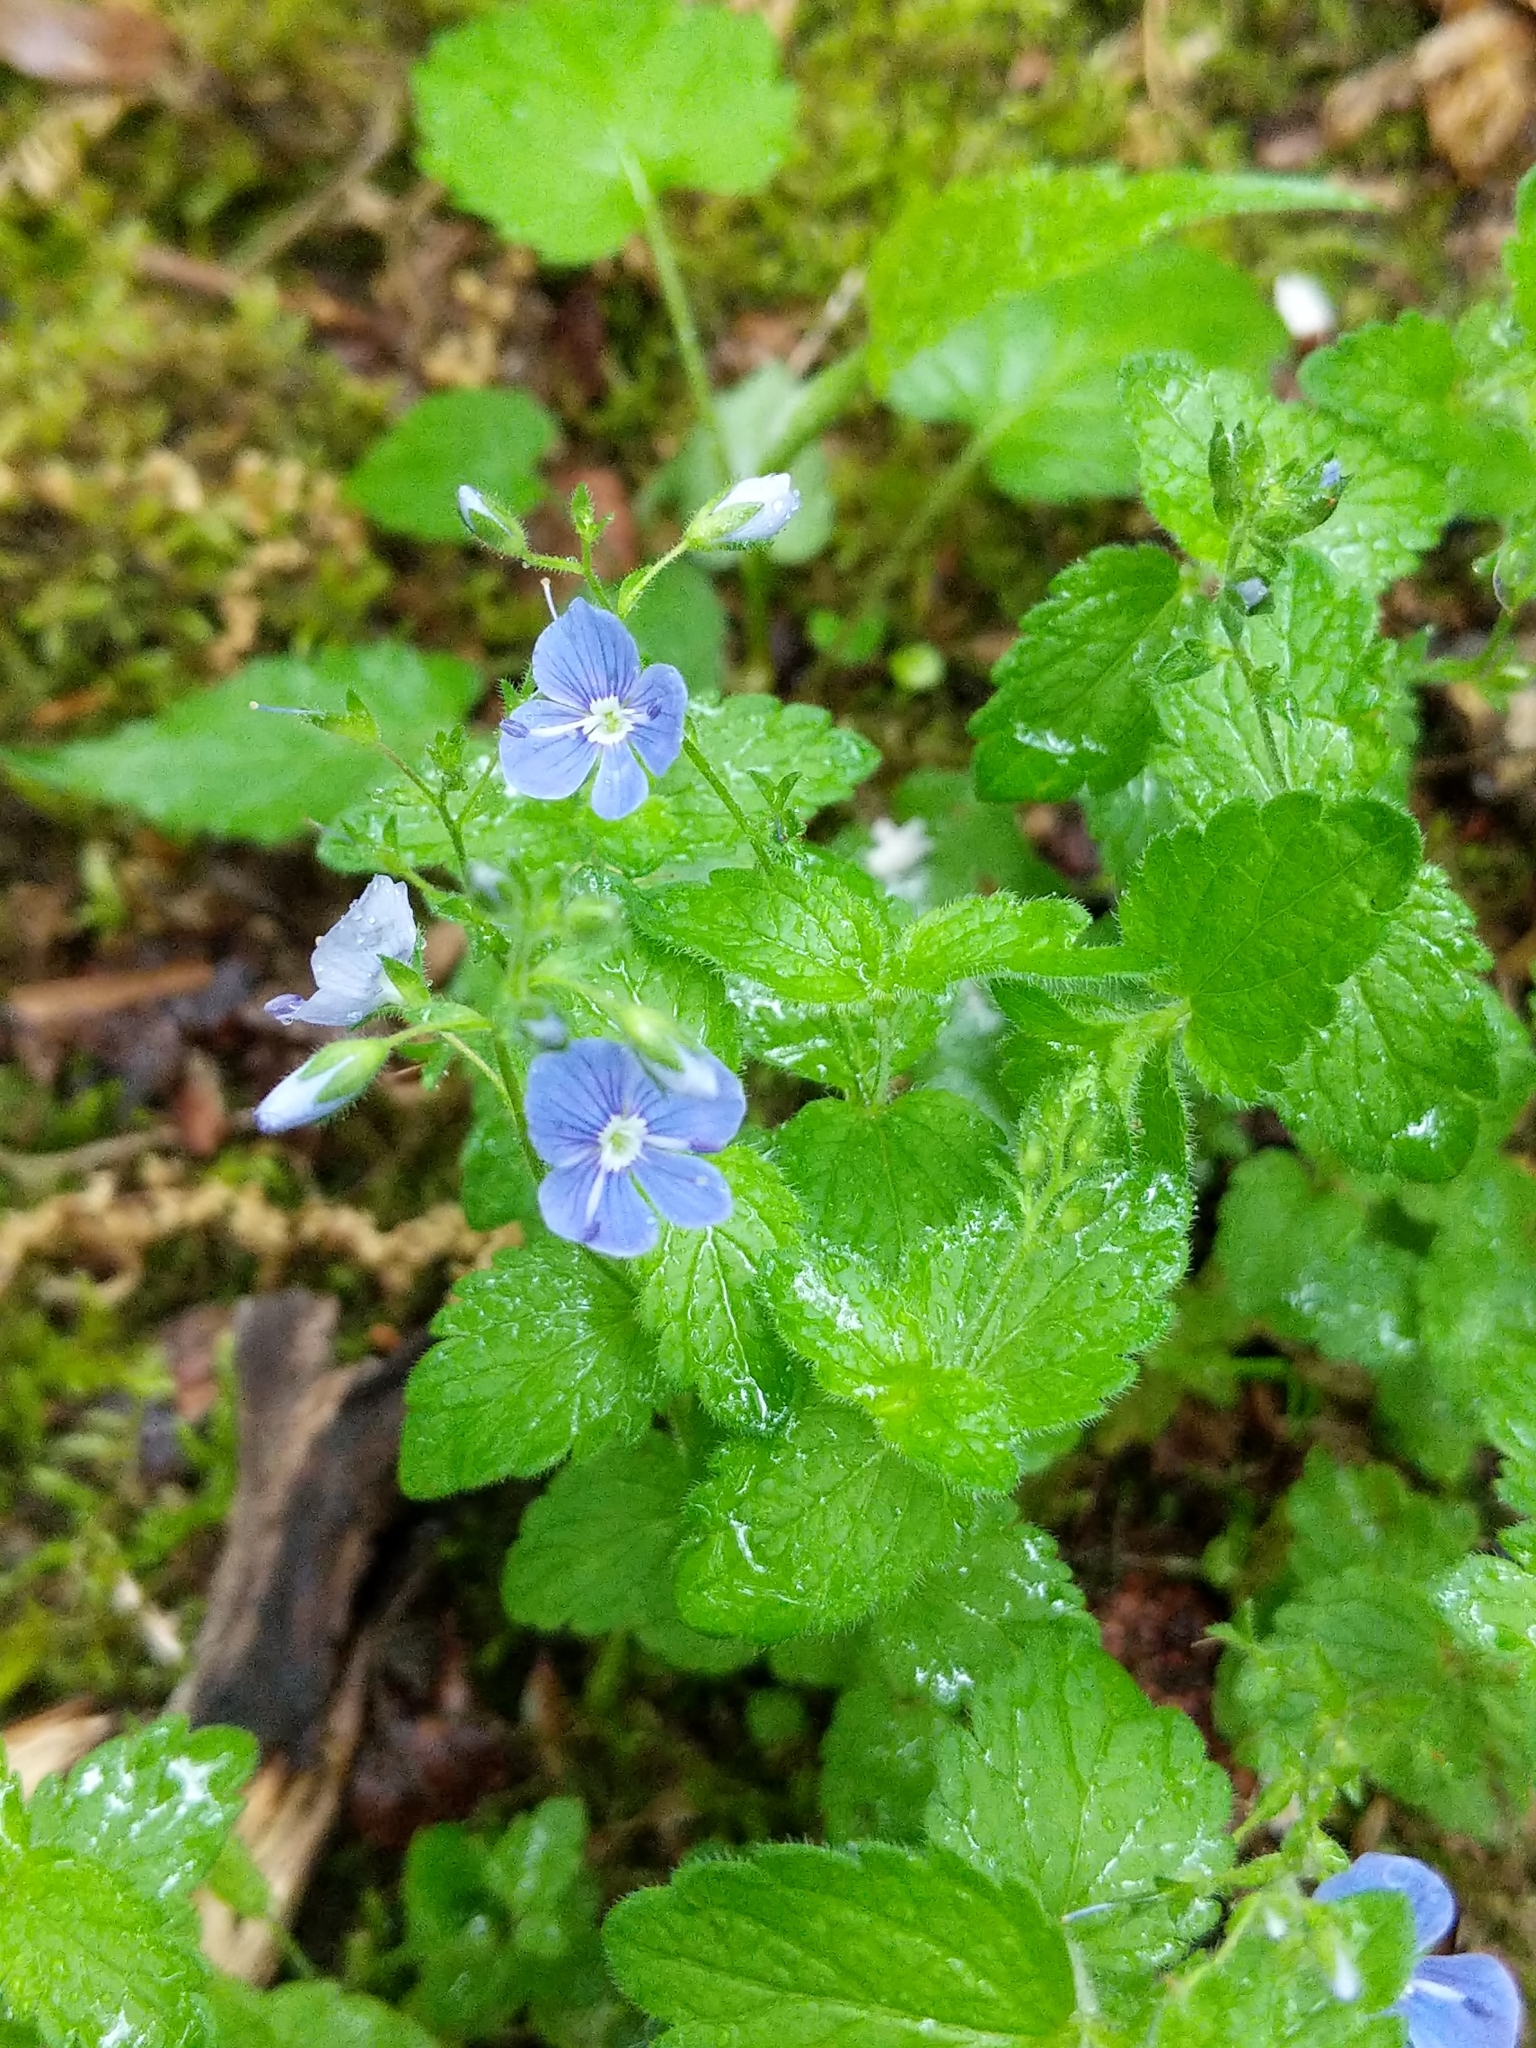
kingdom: Plantae
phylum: Tracheophyta
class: Magnoliopsida
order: Lamiales
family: Plantaginaceae
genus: Veronica
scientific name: Veronica chamaedrys
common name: Germander speedwell
